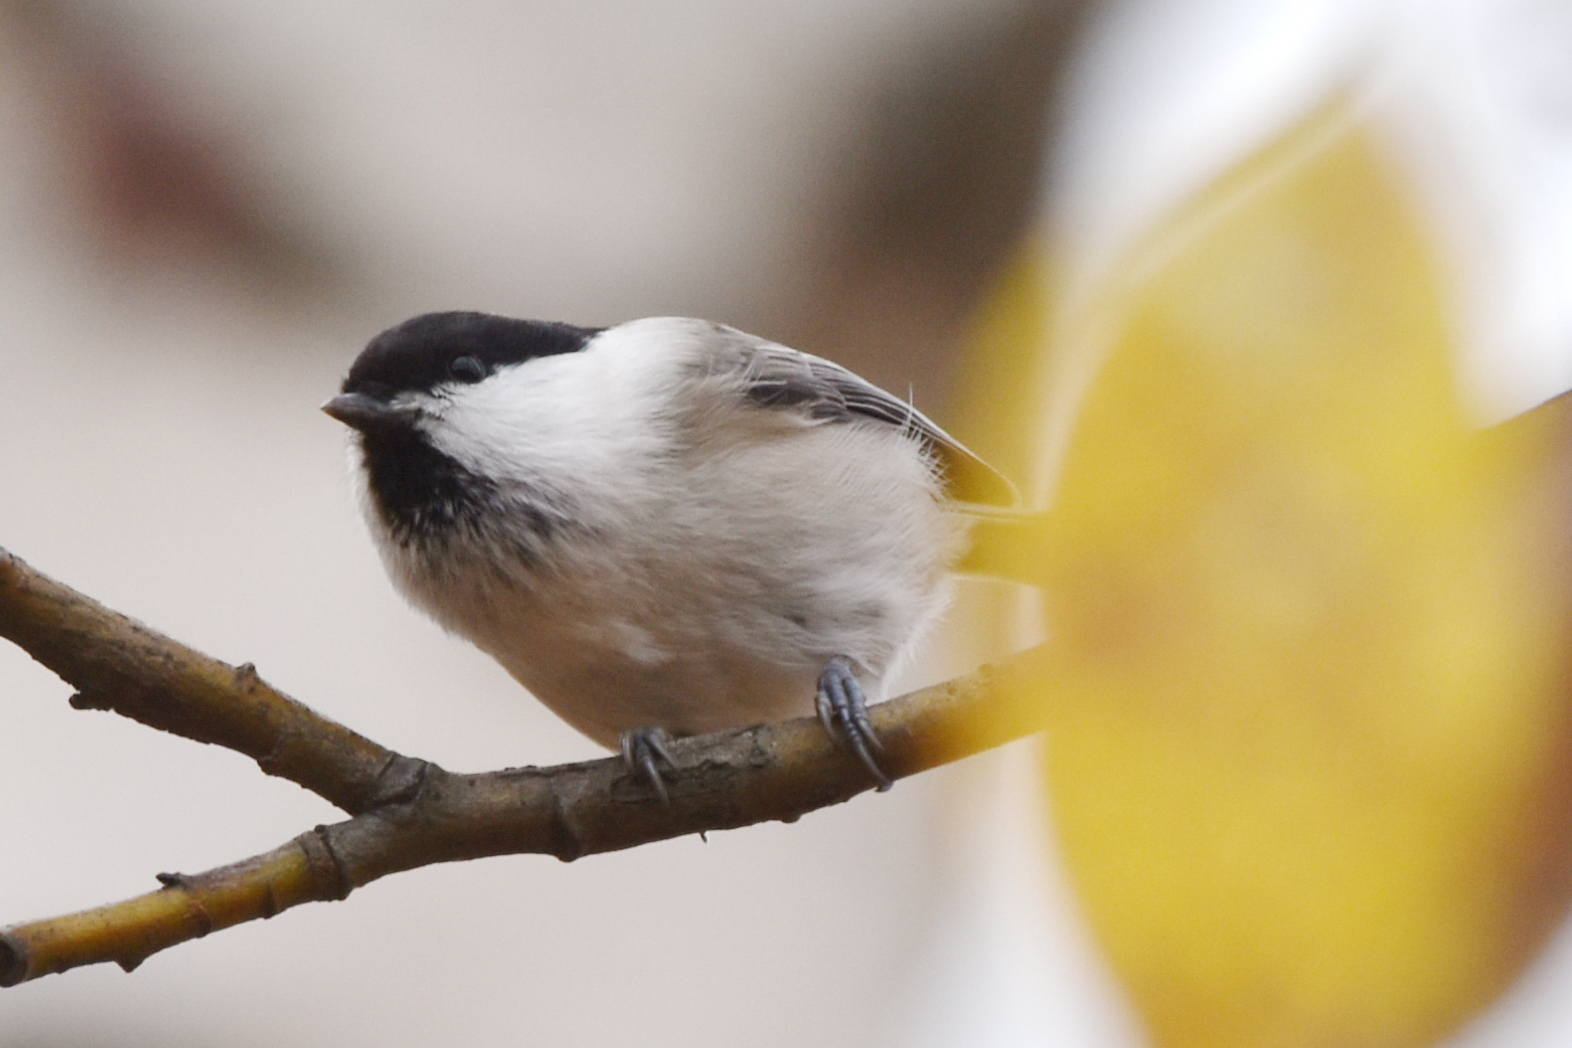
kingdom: Animalia
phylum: Chordata
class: Aves
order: Passeriformes
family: Paridae
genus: Poecile
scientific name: Poecile montanus
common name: Willow tit
